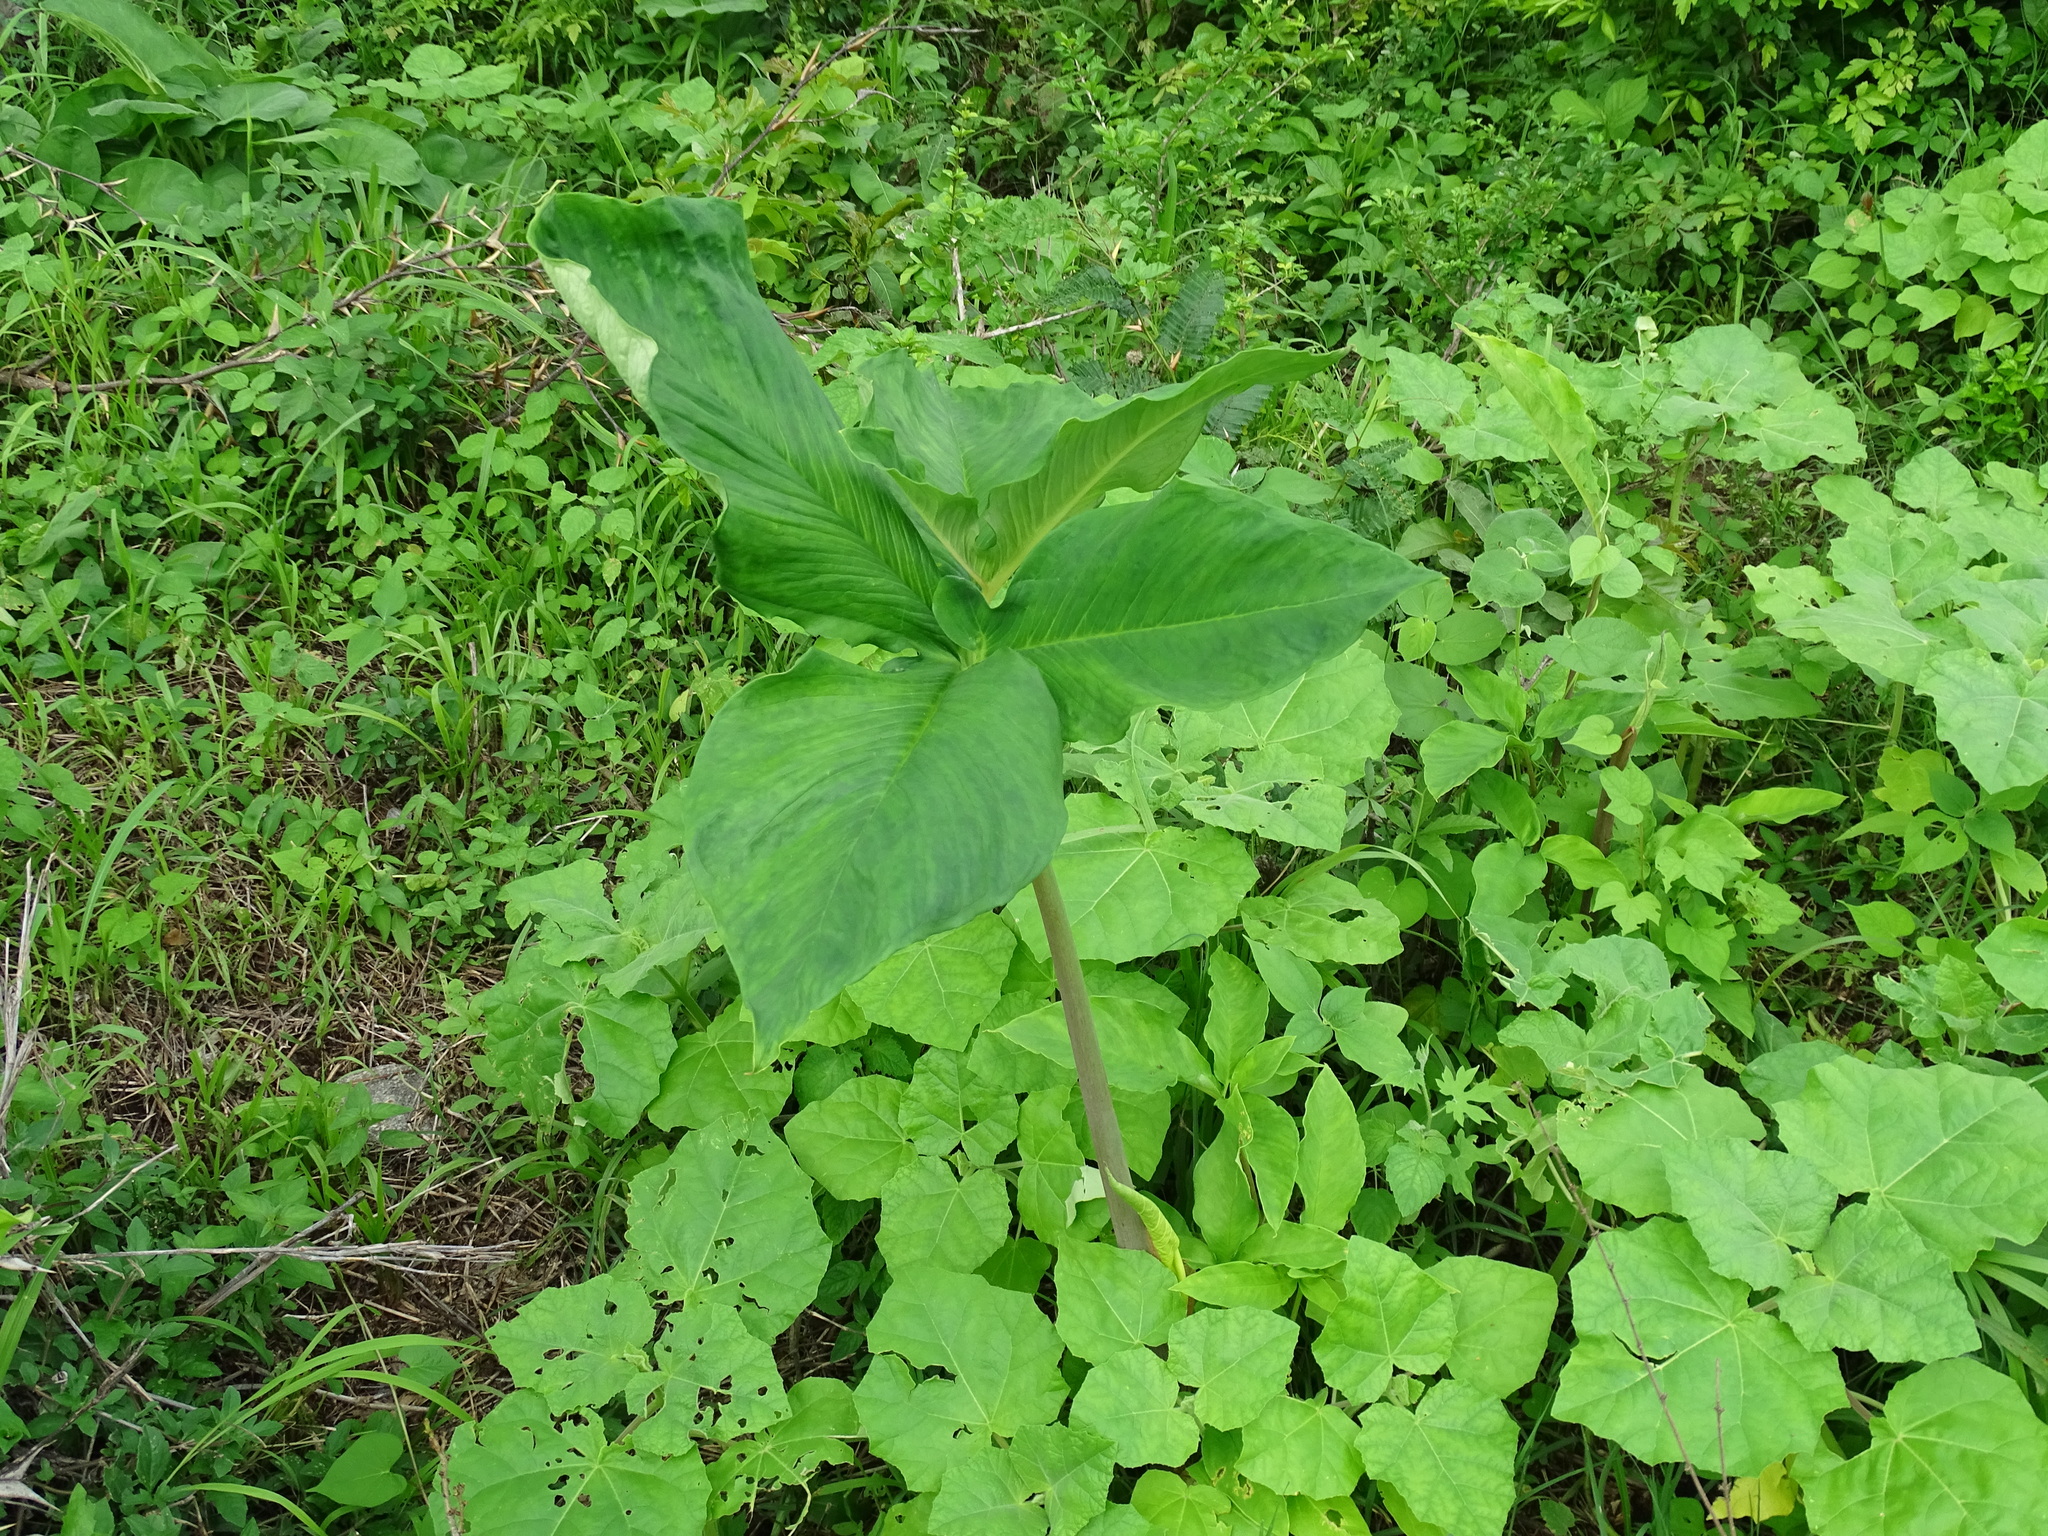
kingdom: Plantae
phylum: Tracheophyta
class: Liliopsida
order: Alismatales
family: Araceae
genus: Xanthosoma
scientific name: Xanthosoma wendlandii
